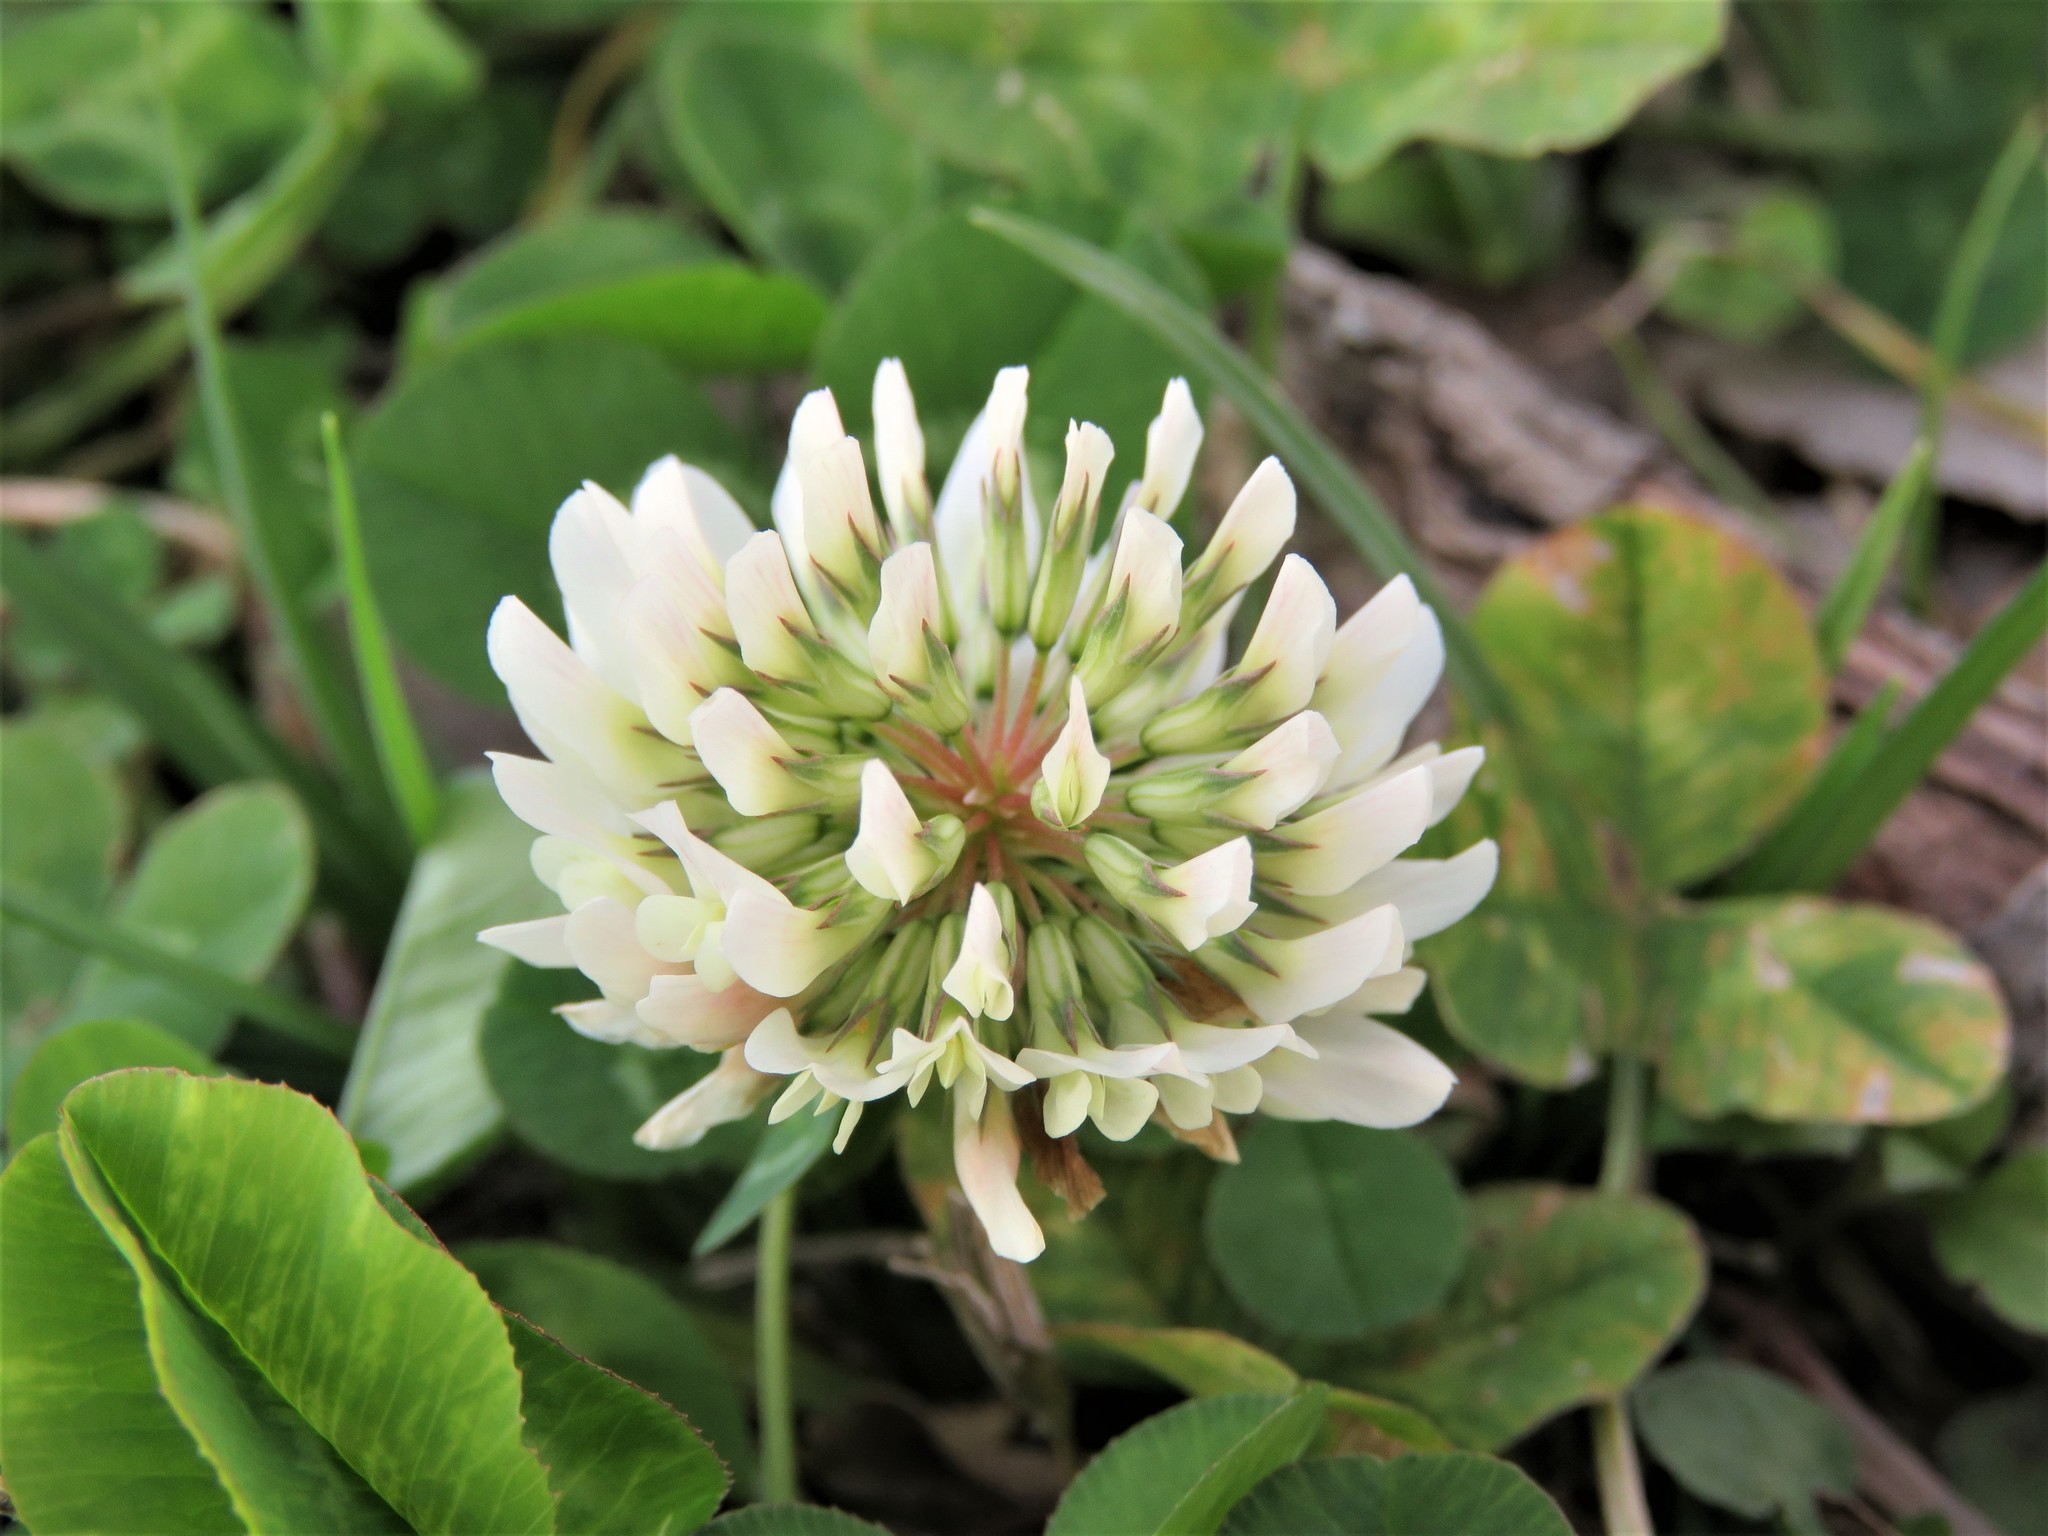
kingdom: Plantae
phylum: Tracheophyta
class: Magnoliopsida
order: Fabales
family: Fabaceae
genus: Trifolium
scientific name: Trifolium repens
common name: White clover
